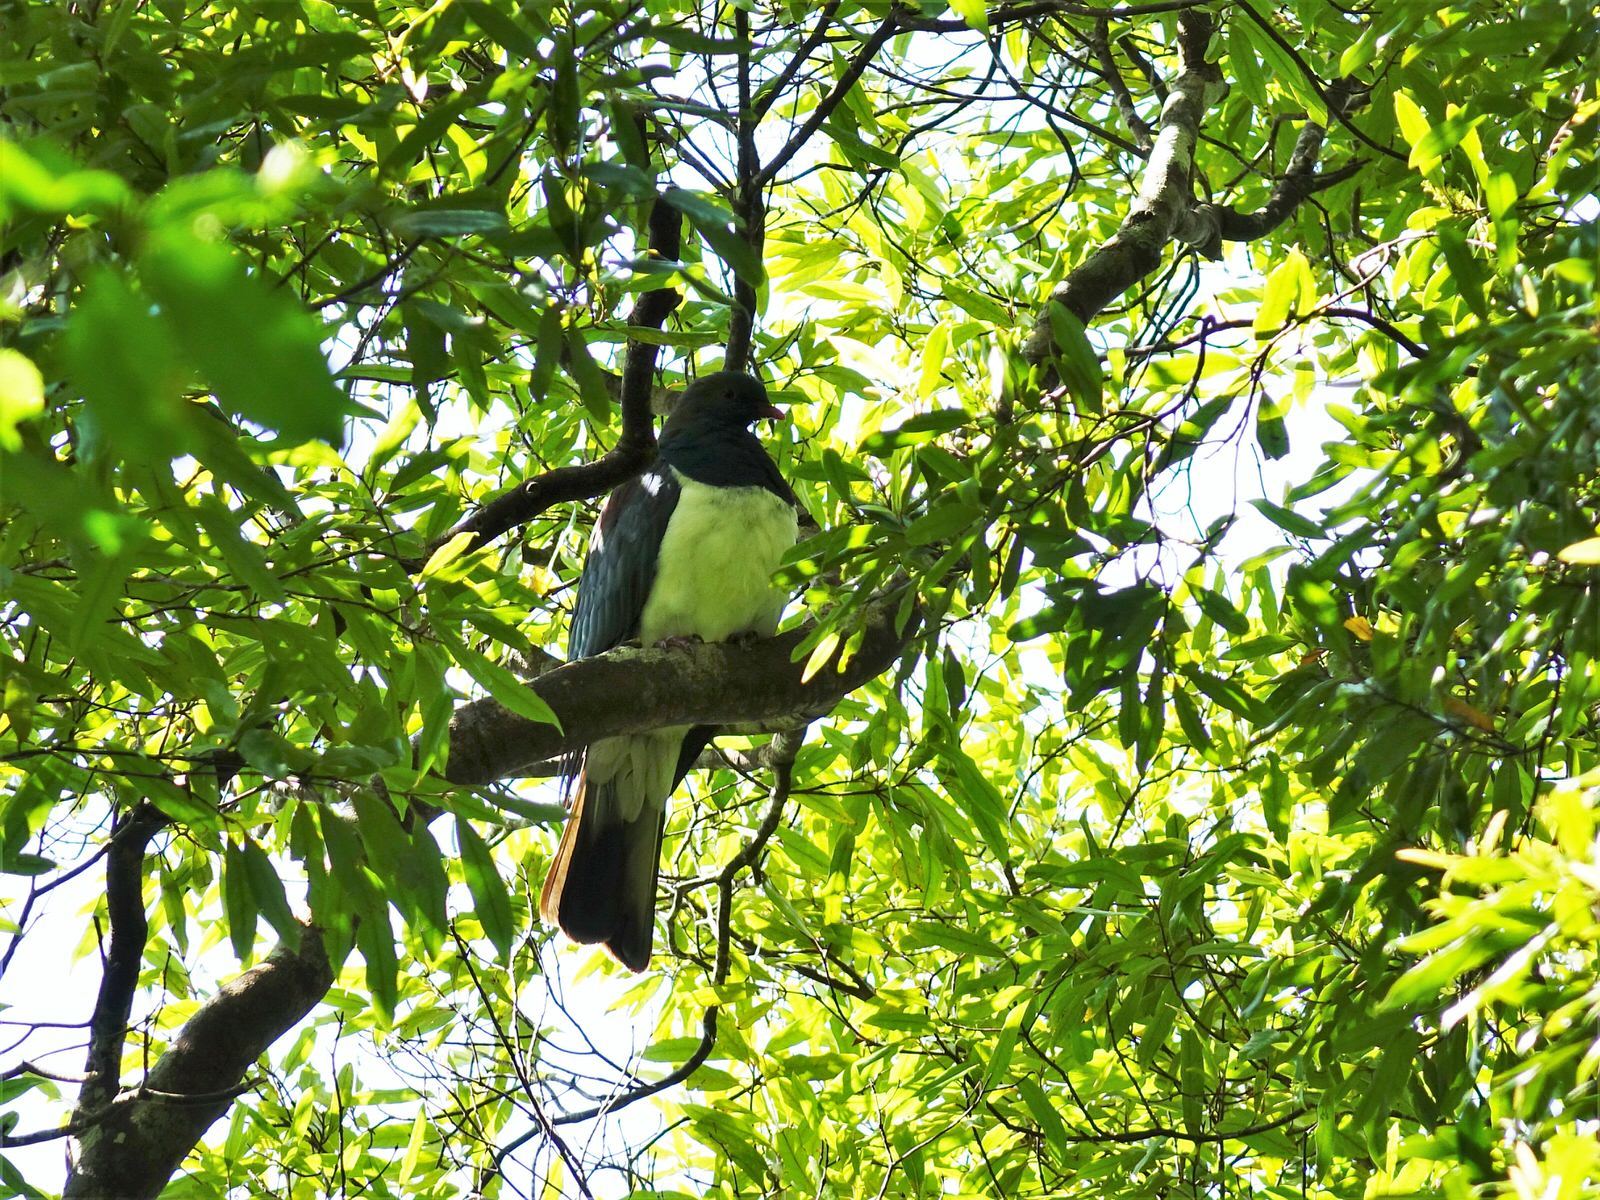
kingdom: Animalia
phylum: Chordata
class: Aves
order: Columbiformes
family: Columbidae
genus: Hemiphaga
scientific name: Hemiphaga novaeseelandiae
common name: New zealand pigeon
